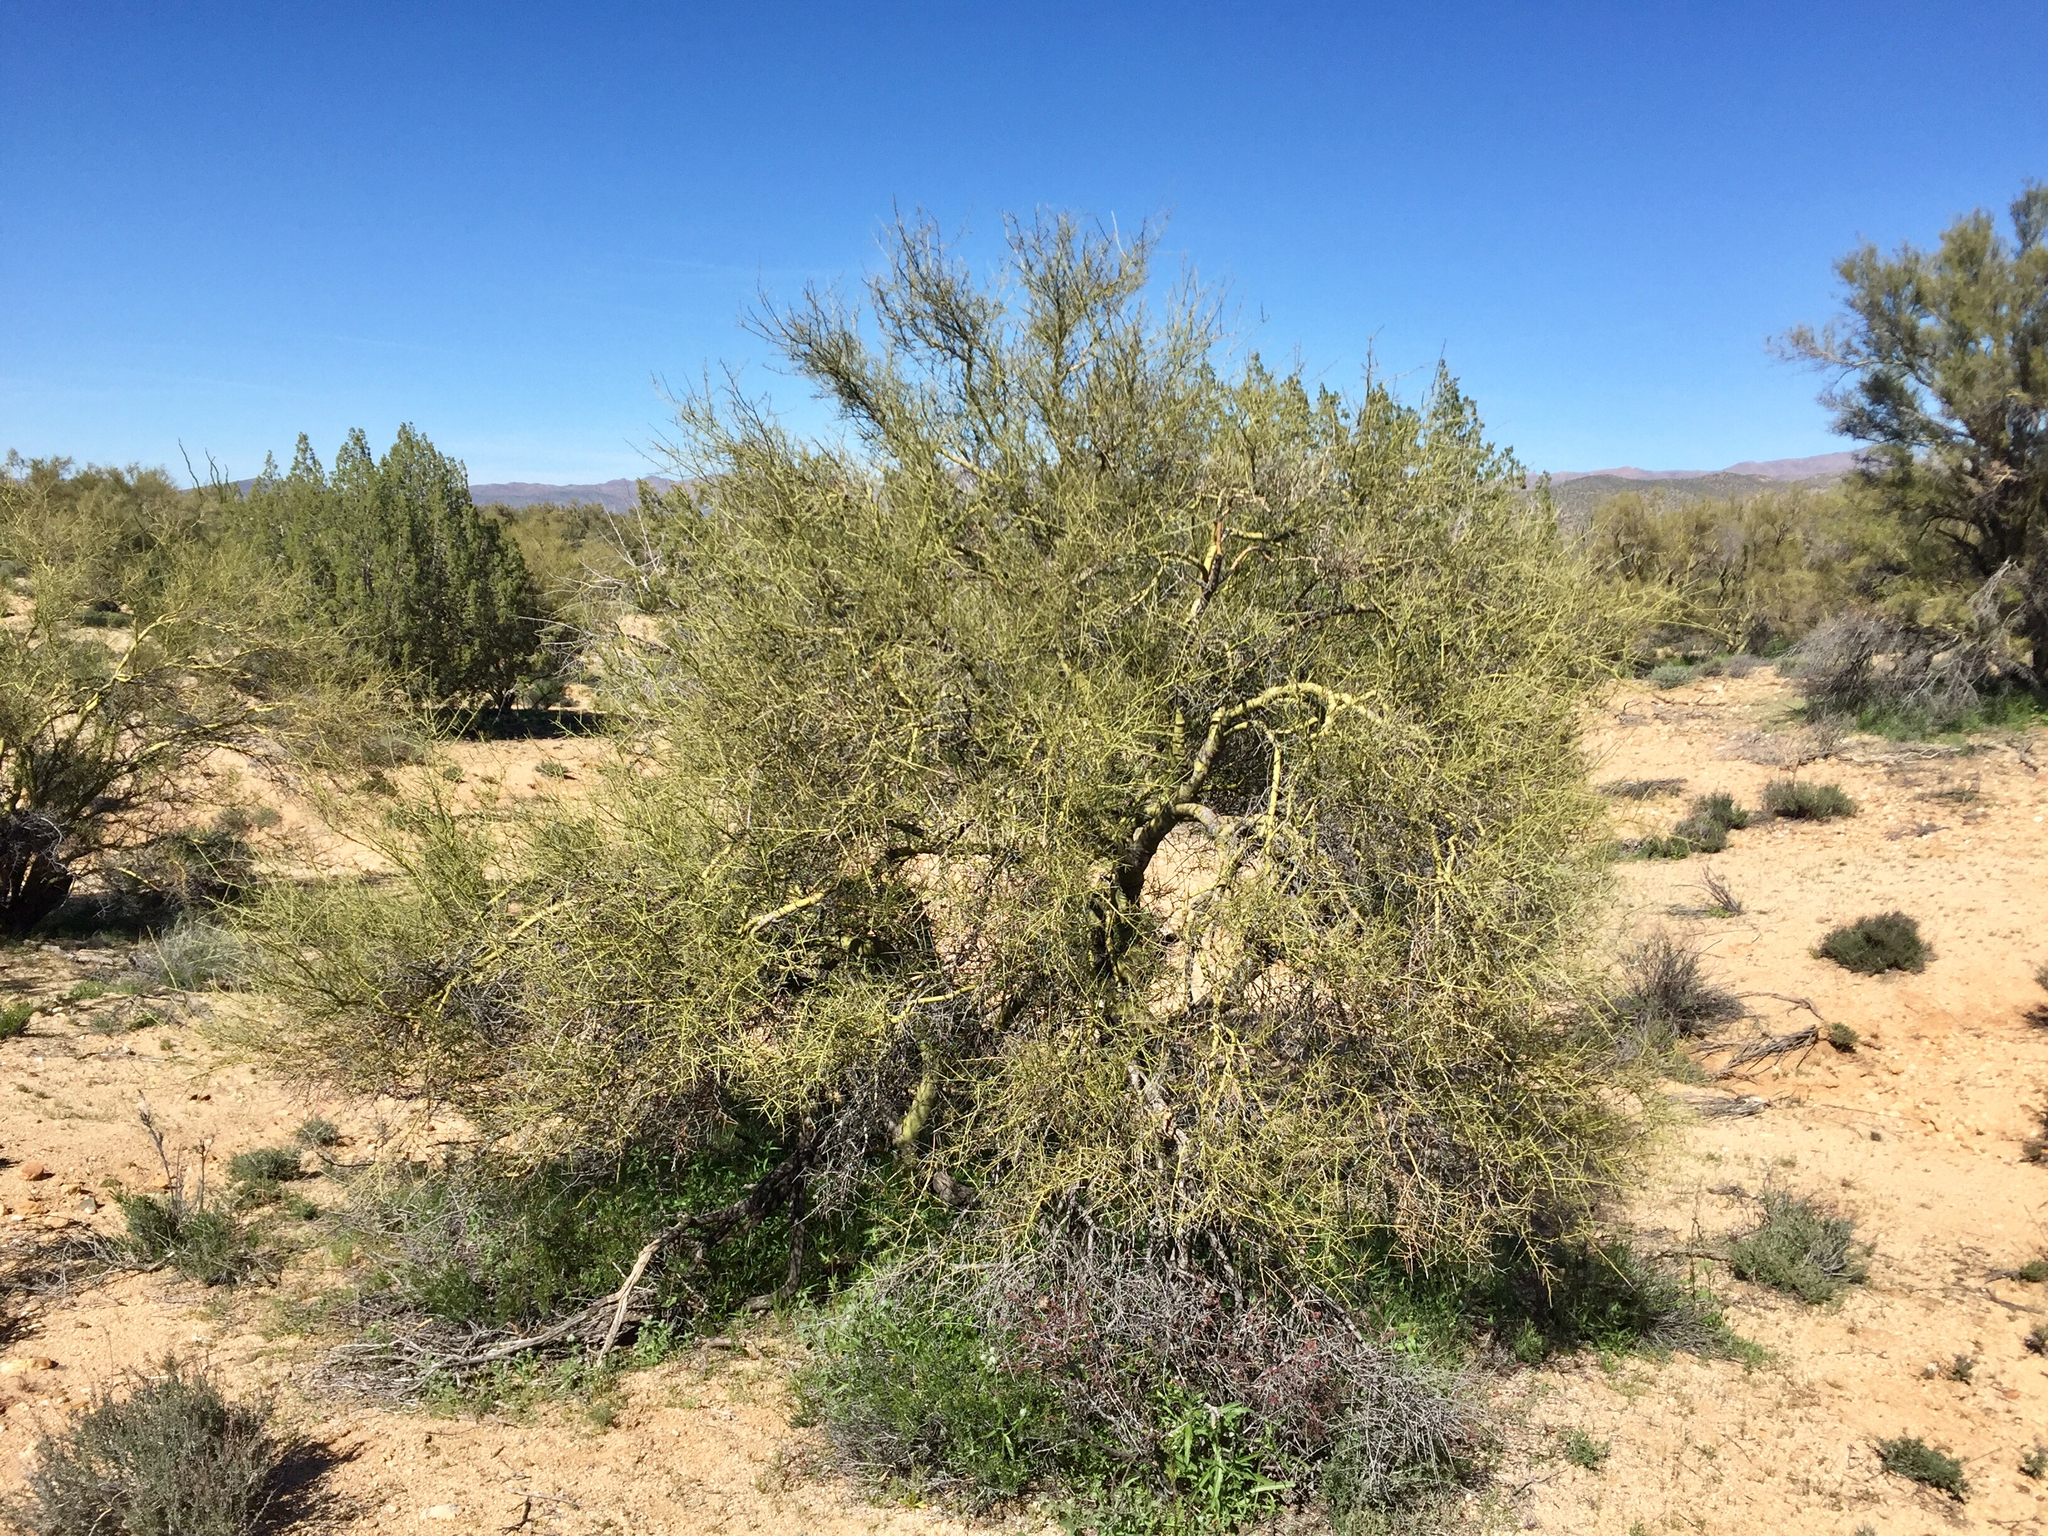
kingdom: Plantae
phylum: Tracheophyta
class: Magnoliopsida
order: Fabales
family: Fabaceae
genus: Parkinsonia
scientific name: Parkinsonia microphylla
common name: Yellow paloverde
